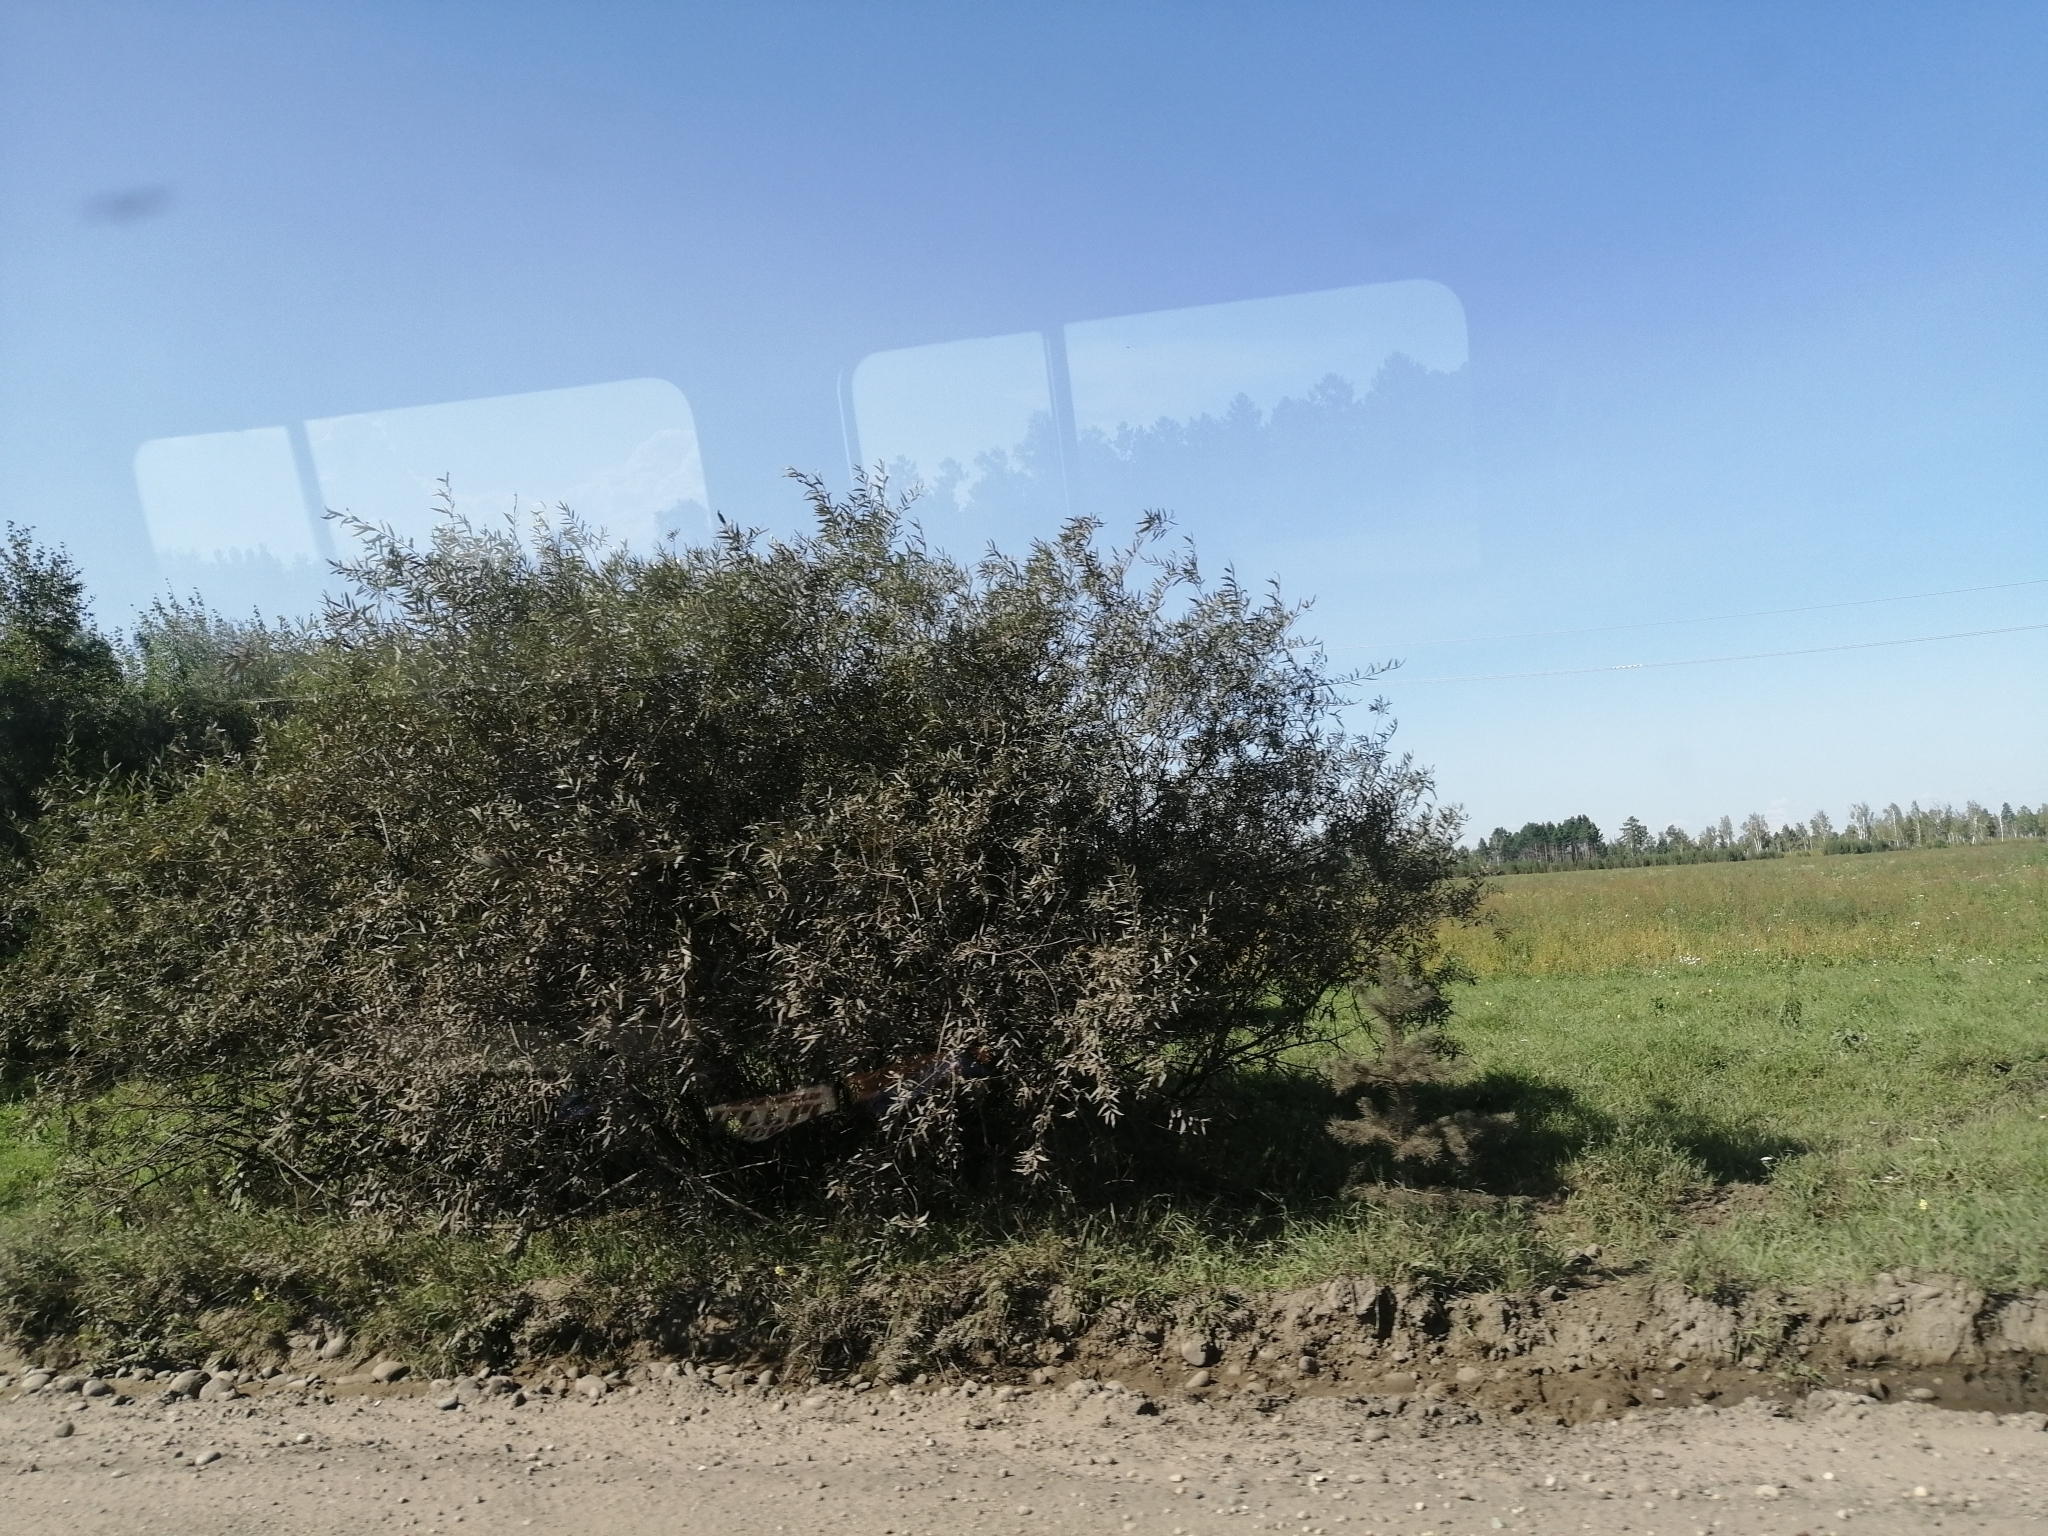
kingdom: Plantae
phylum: Tracheophyta
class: Magnoliopsida
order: Malpighiales
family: Salicaceae
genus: Salix
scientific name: Salix gmelinii
